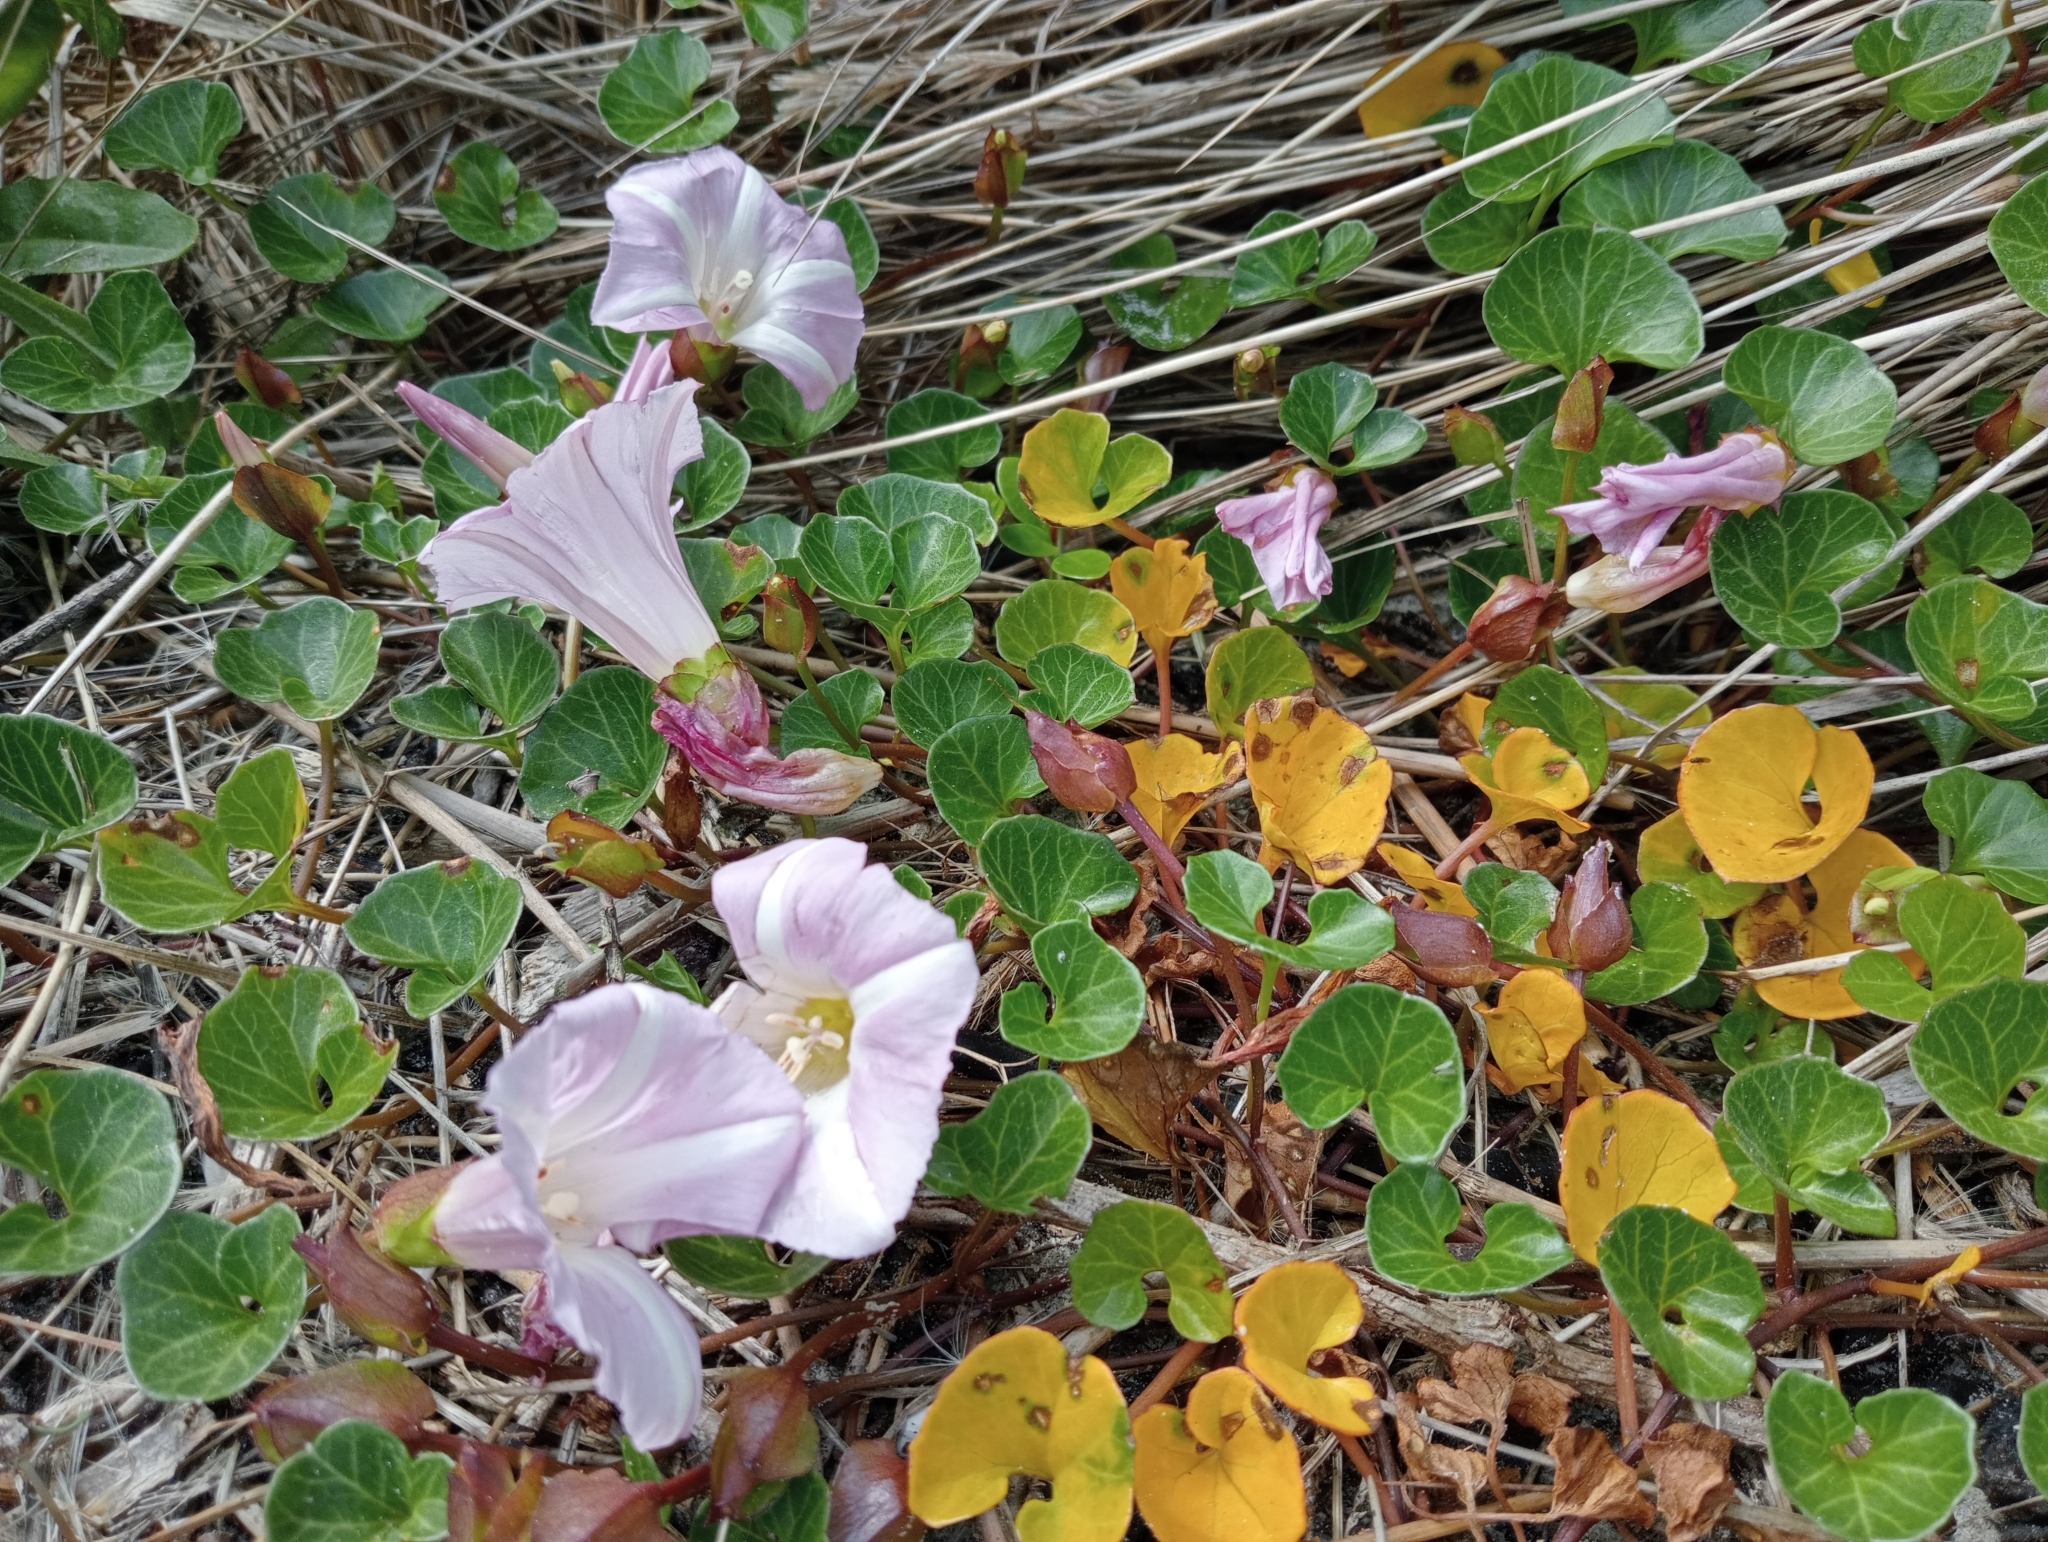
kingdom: Plantae
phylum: Tracheophyta
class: Magnoliopsida
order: Solanales
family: Convolvulaceae
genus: Calystegia
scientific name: Calystegia soldanella
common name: Sea bindweed
